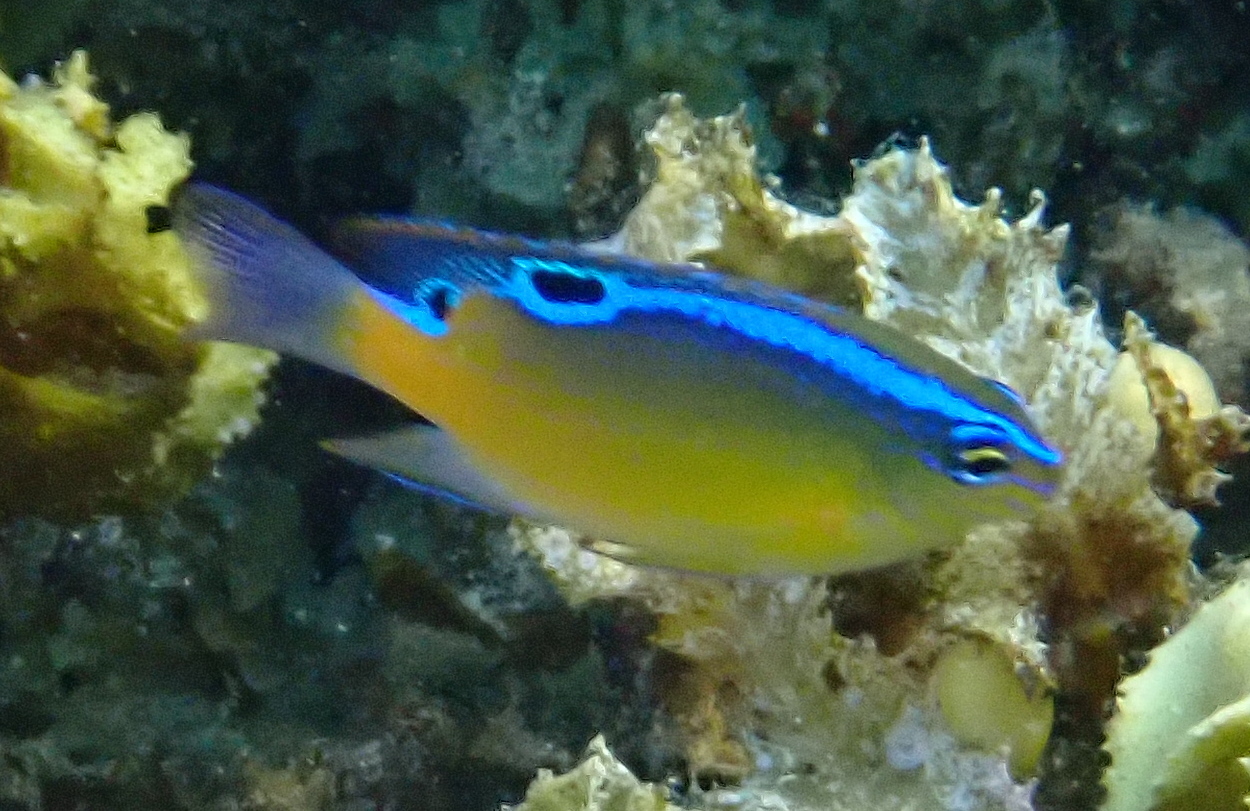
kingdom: Animalia
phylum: Chordata
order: Perciformes
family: Pomacentridae
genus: Chrysiptera
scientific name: Chrysiptera unimaculata
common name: Onespot demoiselle
